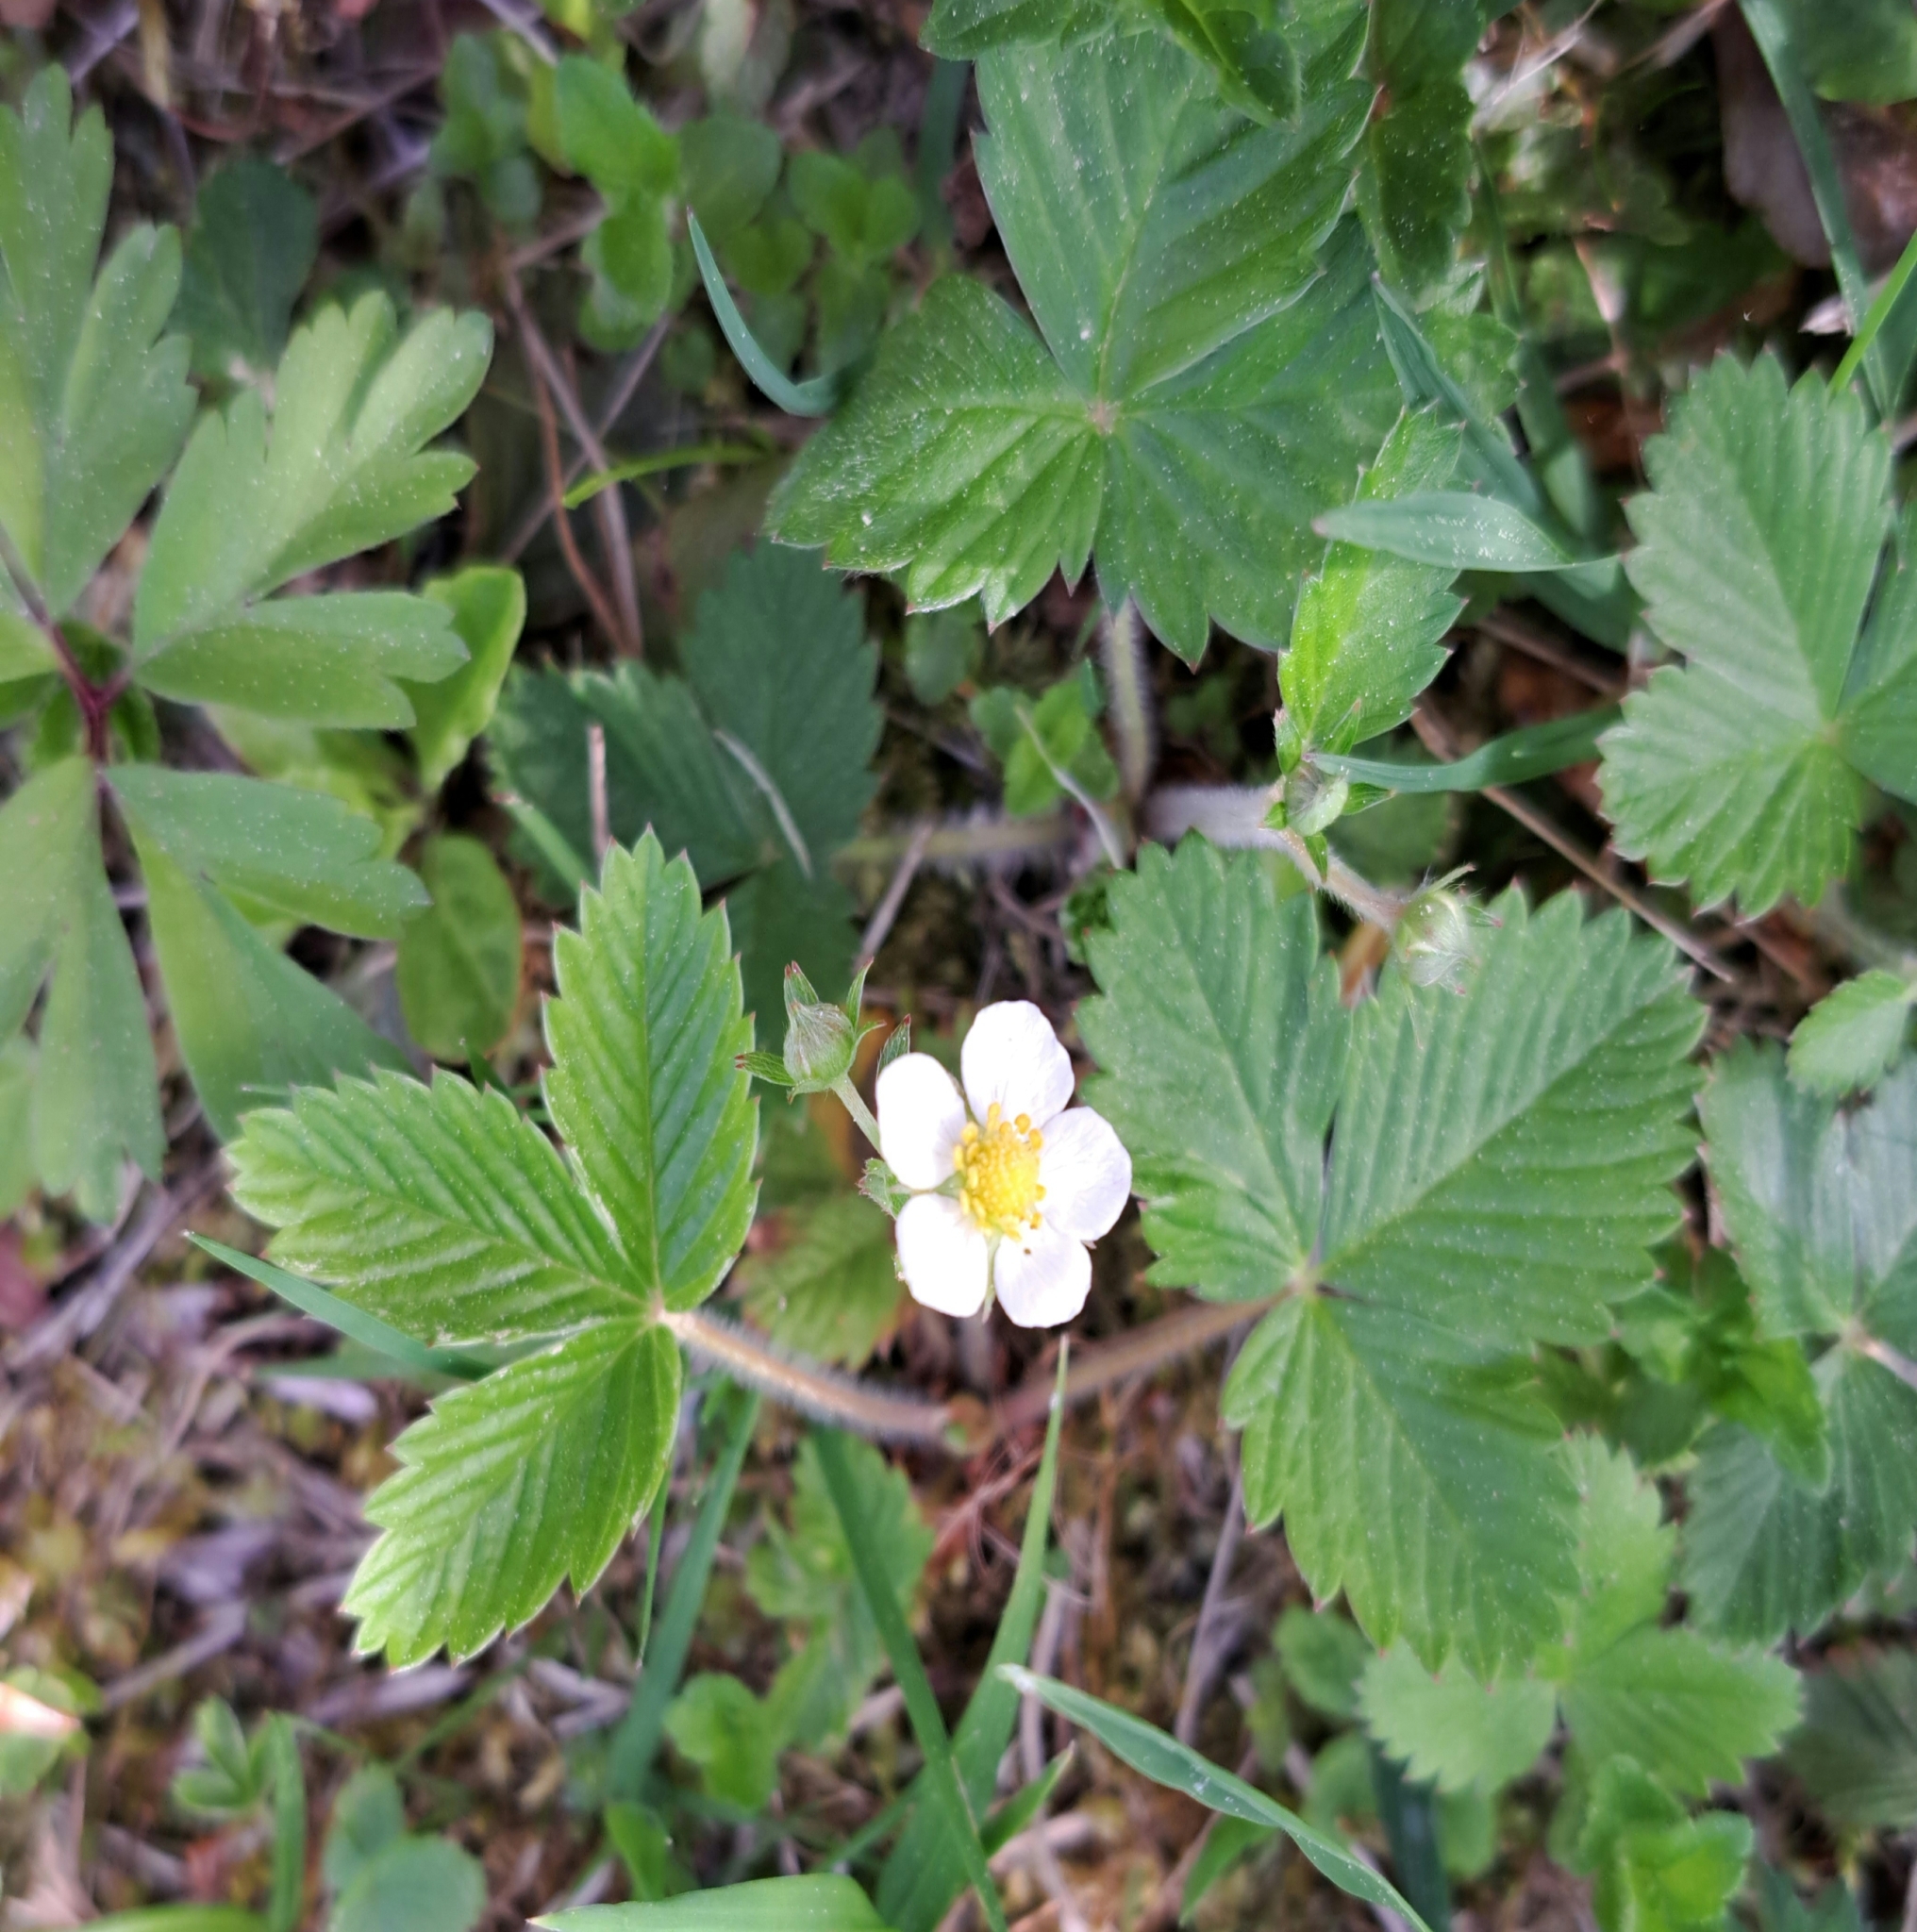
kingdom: Plantae
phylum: Tracheophyta
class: Magnoliopsida
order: Rosales
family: Rosaceae
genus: Fragaria
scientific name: Fragaria vesca
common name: Wild strawberry
